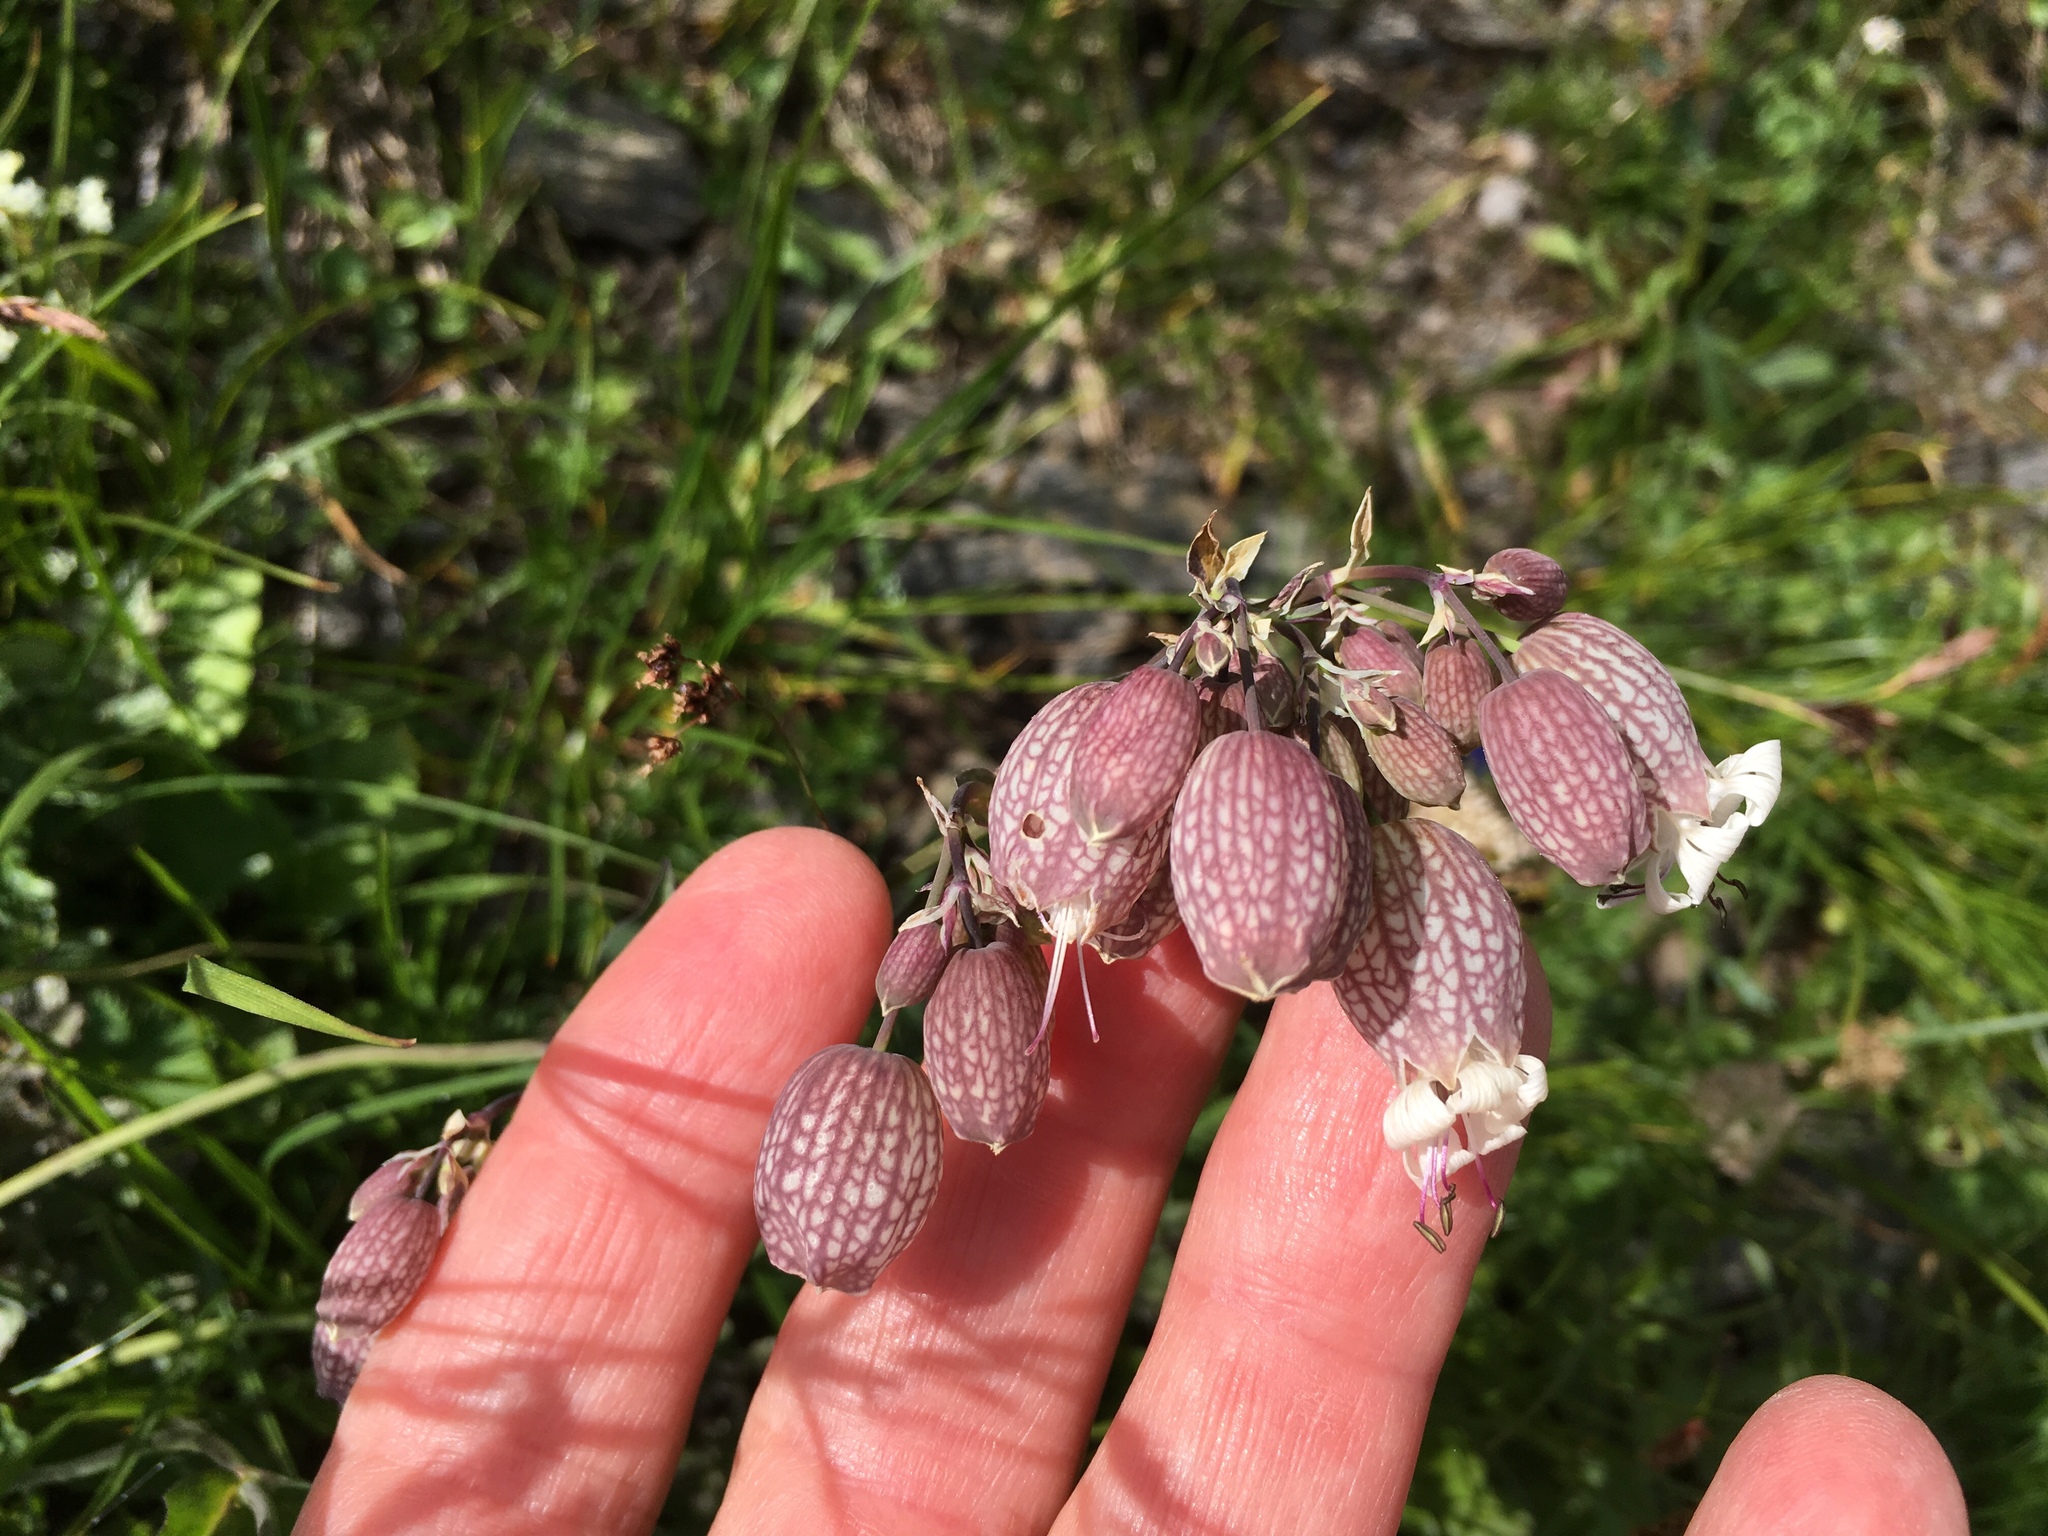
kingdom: Plantae
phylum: Tracheophyta
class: Magnoliopsida
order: Caryophyllales
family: Caryophyllaceae
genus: Silene
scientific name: Silene vulgaris
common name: Bladder campion
